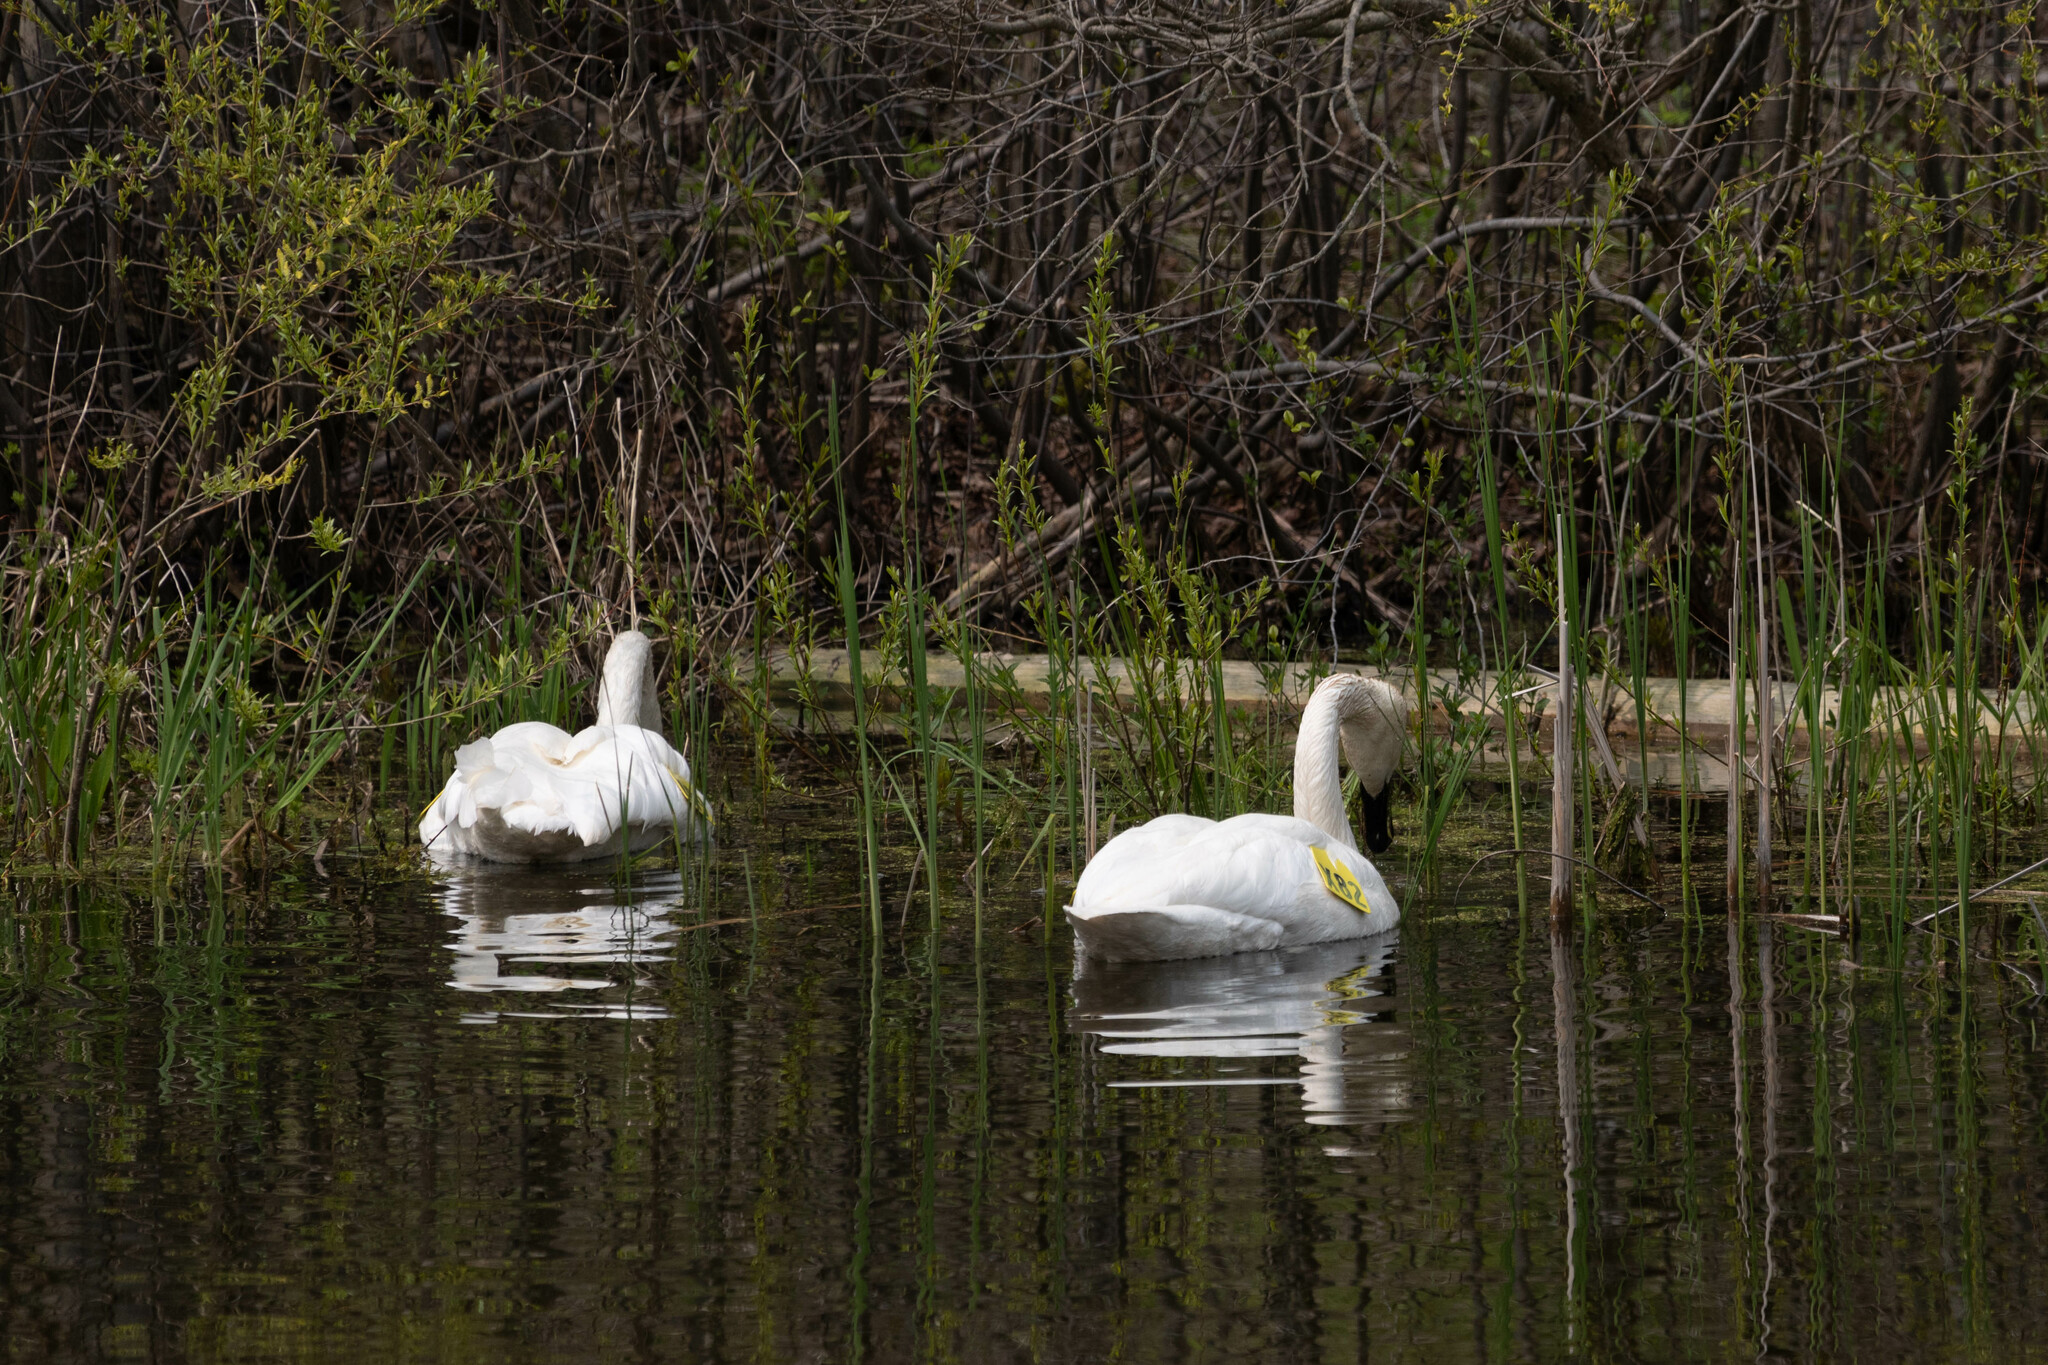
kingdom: Animalia
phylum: Chordata
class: Aves
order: Anseriformes
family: Anatidae
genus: Cygnus
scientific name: Cygnus buccinator
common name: Trumpeter swan
